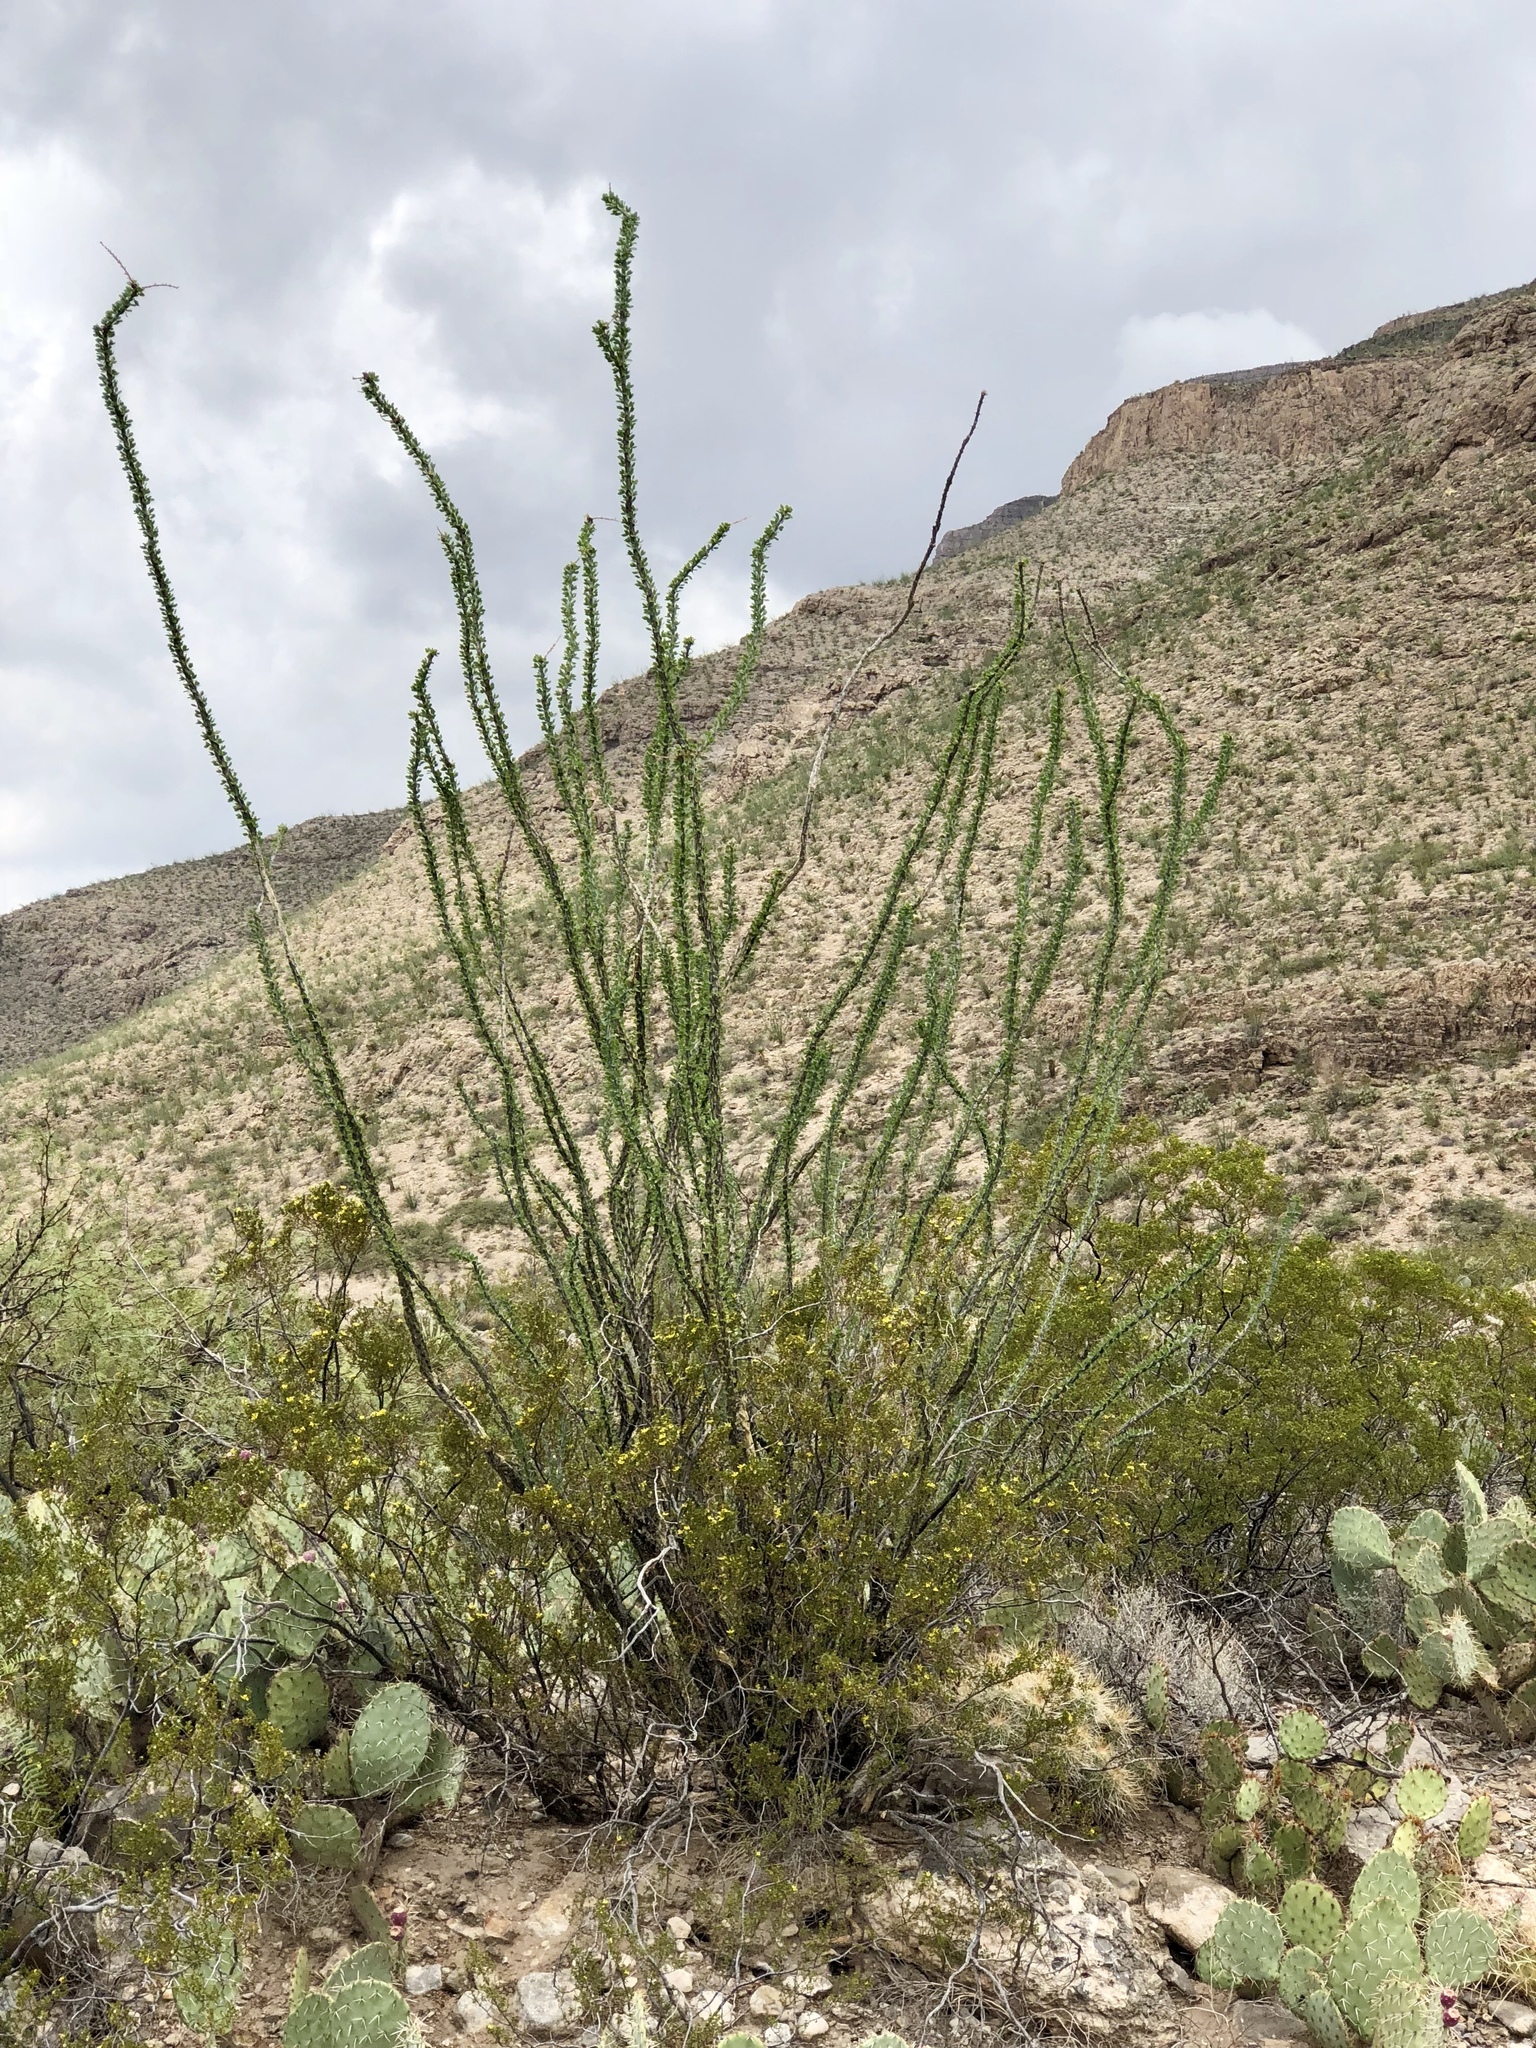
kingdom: Plantae
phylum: Tracheophyta
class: Magnoliopsida
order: Ericales
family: Fouquieriaceae
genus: Fouquieria
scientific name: Fouquieria splendens
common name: Vine-cactus
